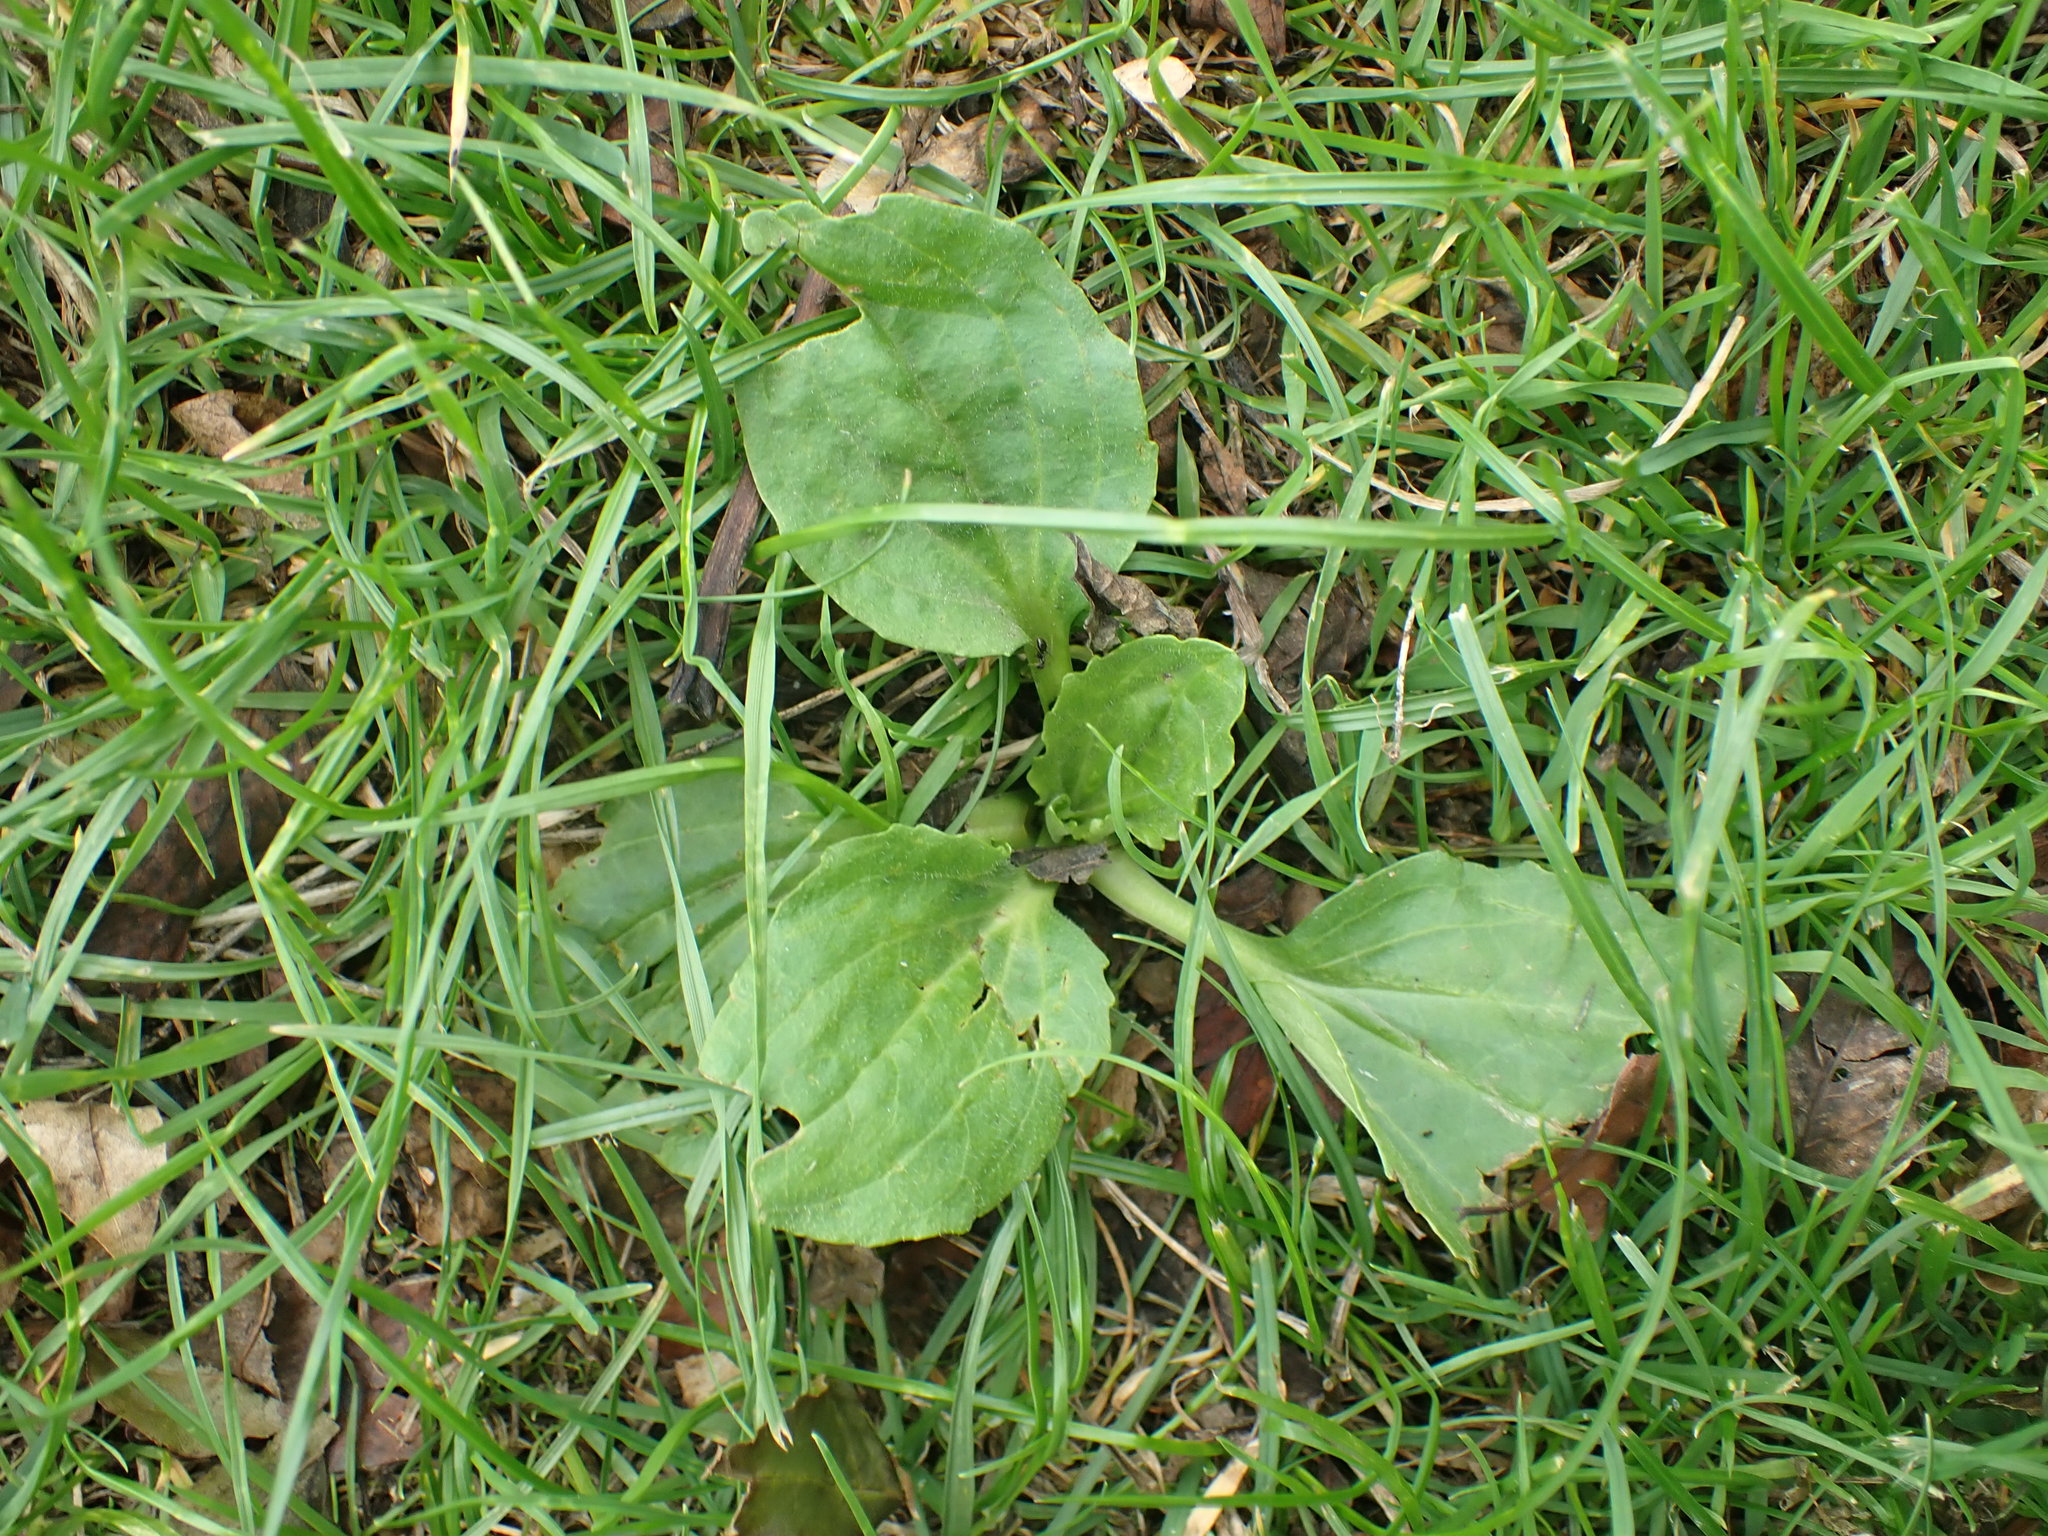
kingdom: Plantae
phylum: Tracheophyta
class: Magnoliopsida
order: Lamiales
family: Plantaginaceae
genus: Plantago
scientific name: Plantago major
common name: Common plantain
